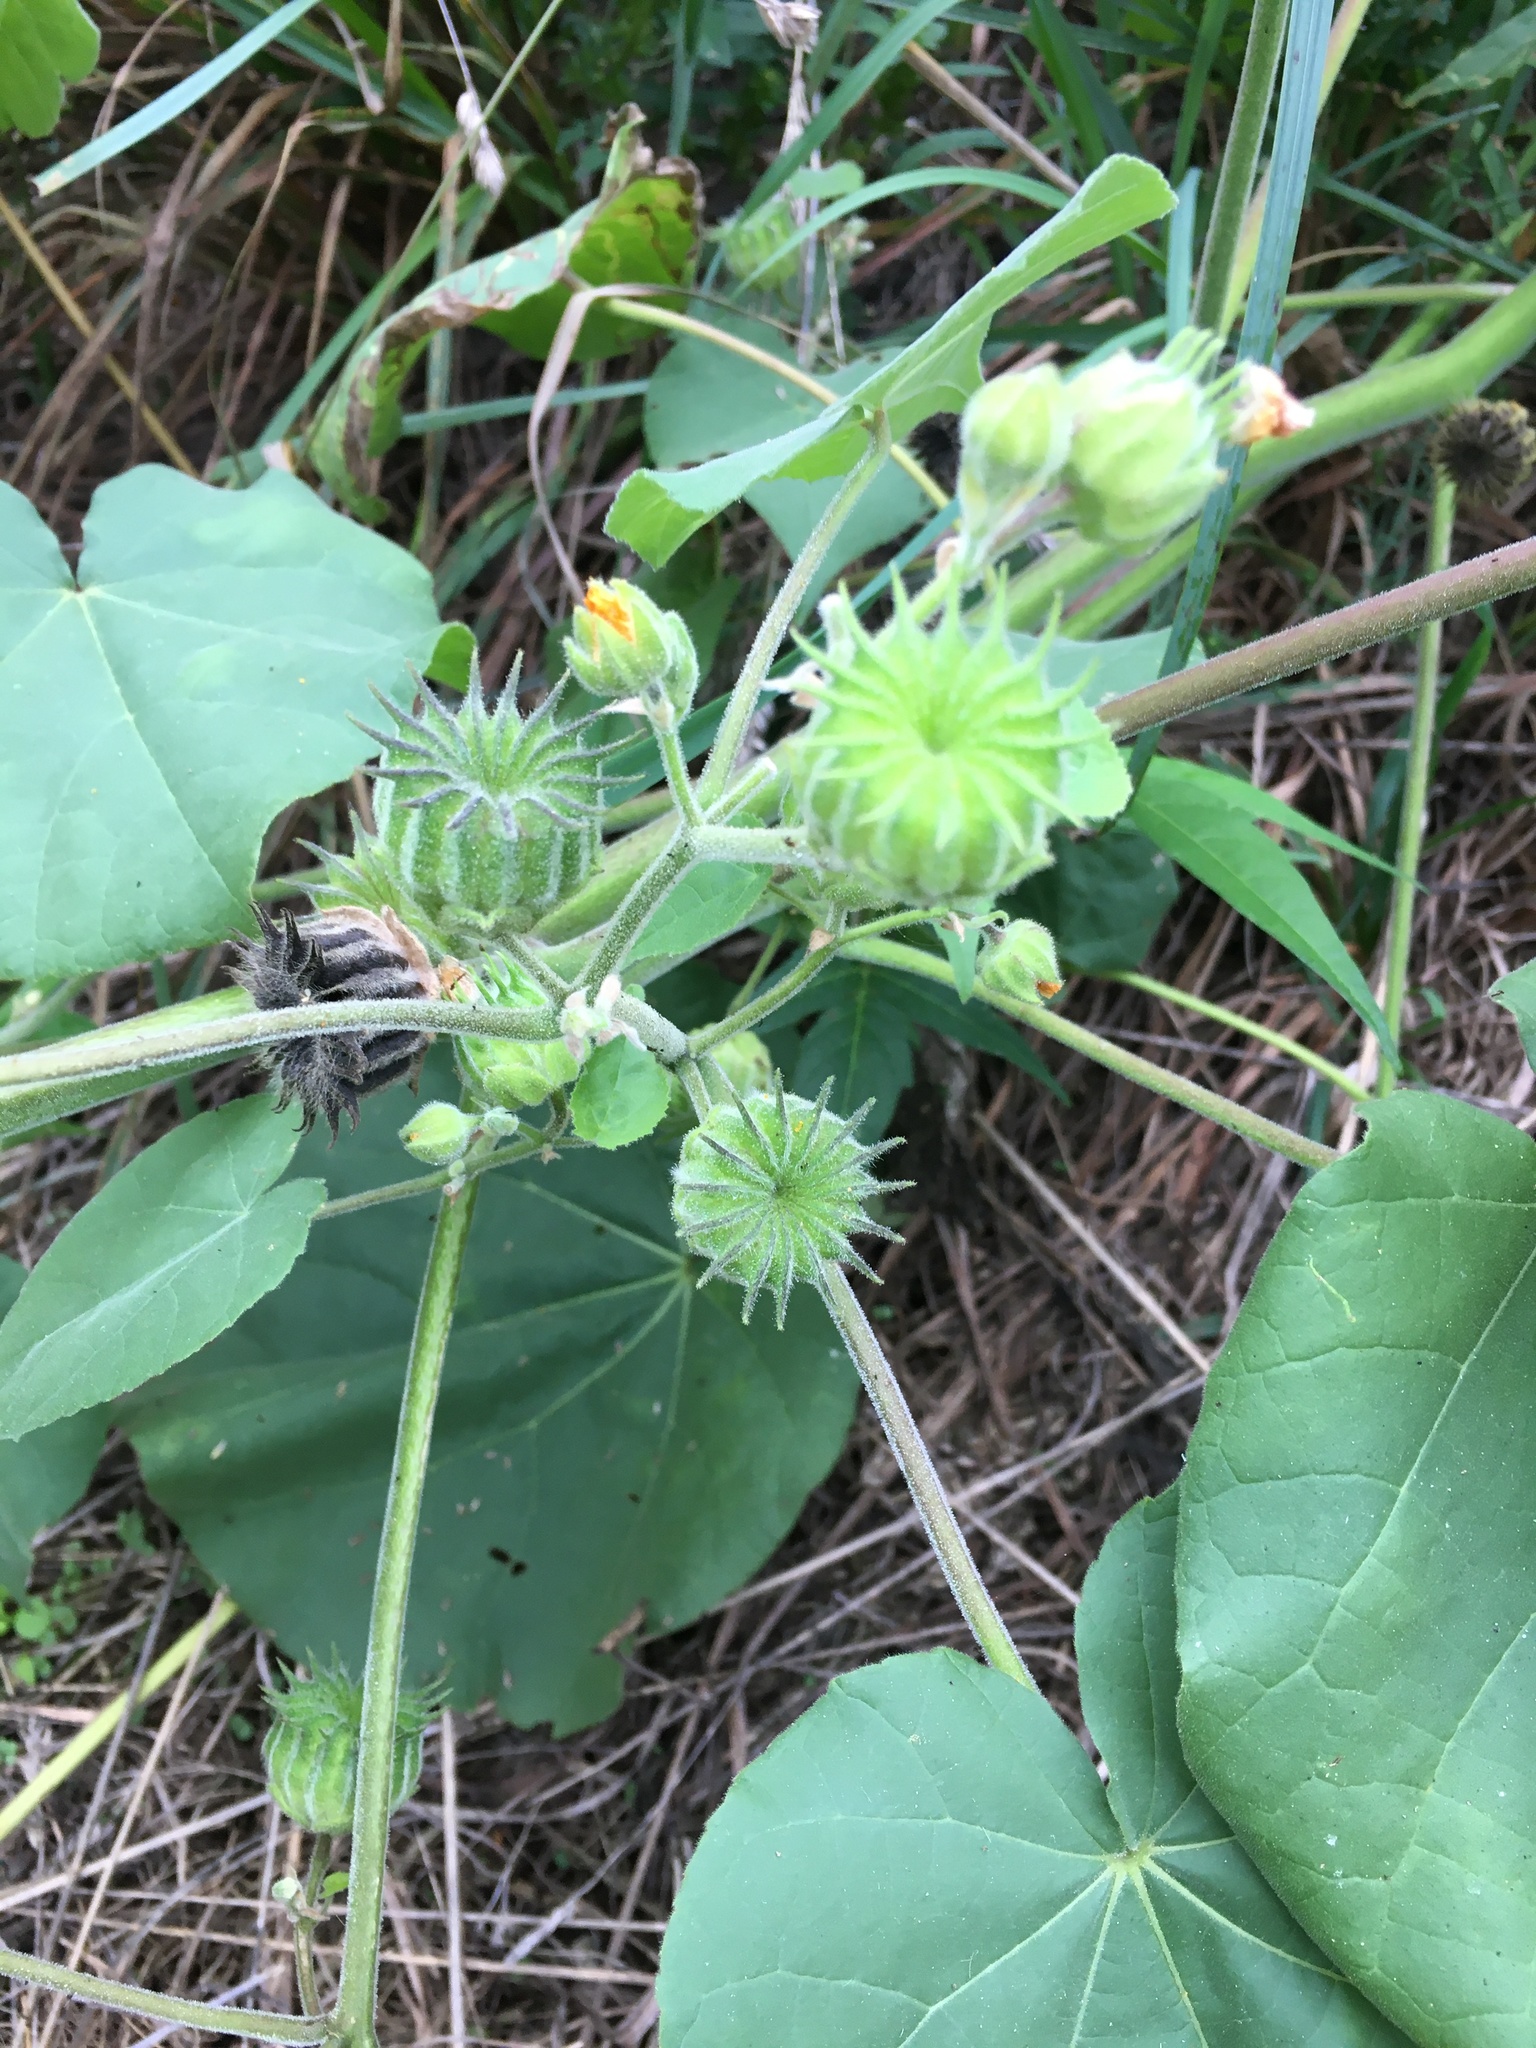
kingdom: Plantae
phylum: Tracheophyta
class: Magnoliopsida
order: Malvales
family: Malvaceae
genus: Abutilon
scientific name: Abutilon theophrasti
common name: Velvetleaf
